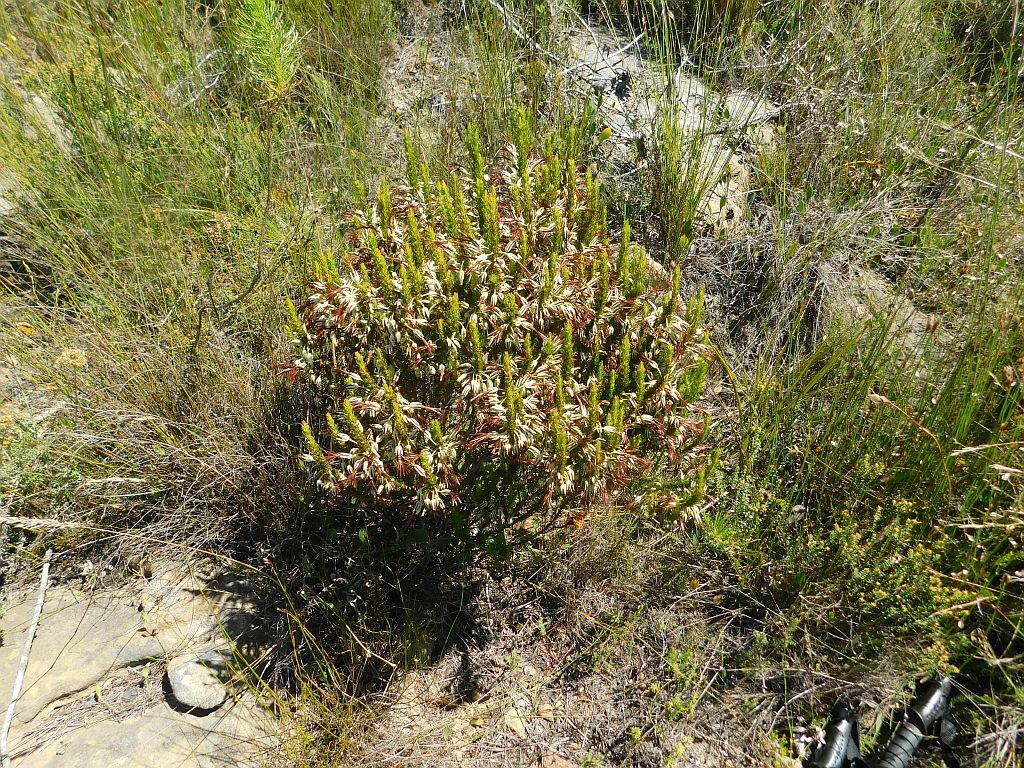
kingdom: Plantae
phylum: Tracheophyta
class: Magnoliopsida
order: Ericales
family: Ericaceae
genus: Erica
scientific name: Erica plukenetii
